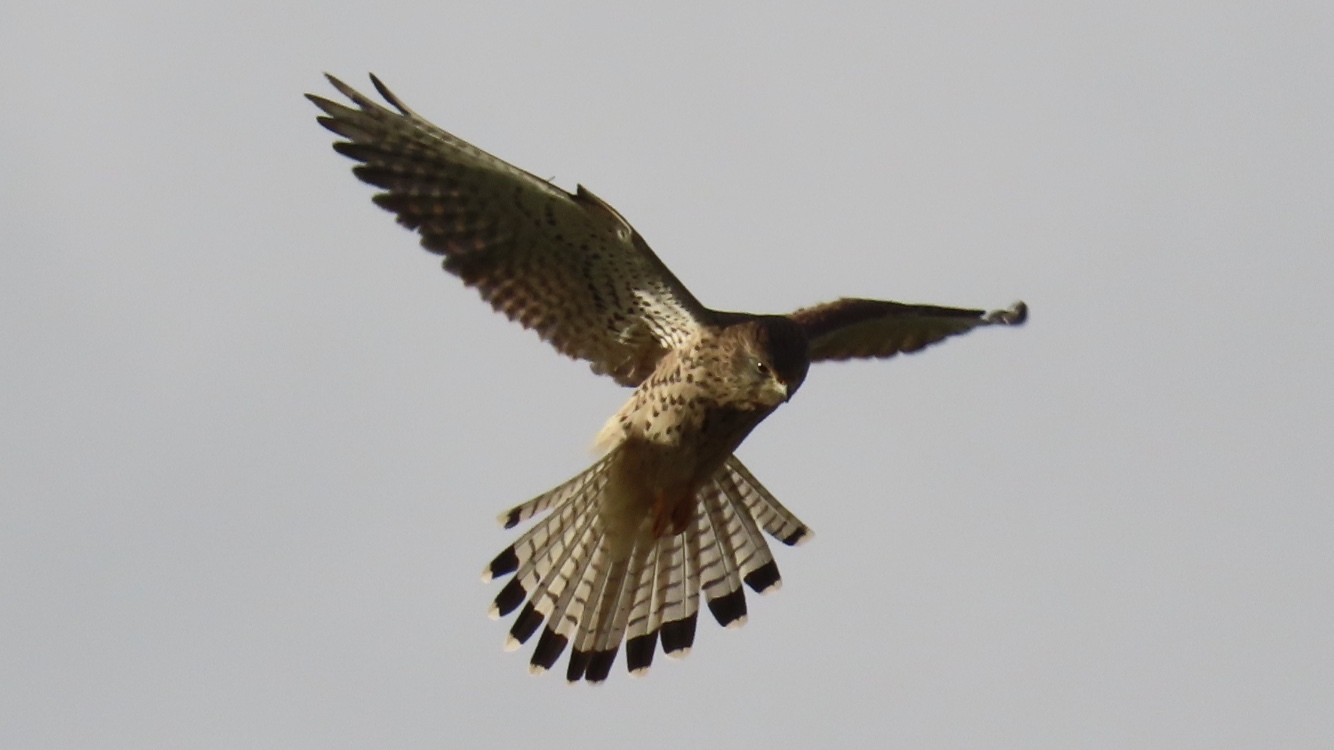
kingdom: Animalia
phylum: Chordata
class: Aves
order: Falconiformes
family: Falconidae
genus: Falco
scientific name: Falco tinnunculus
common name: Common kestrel
